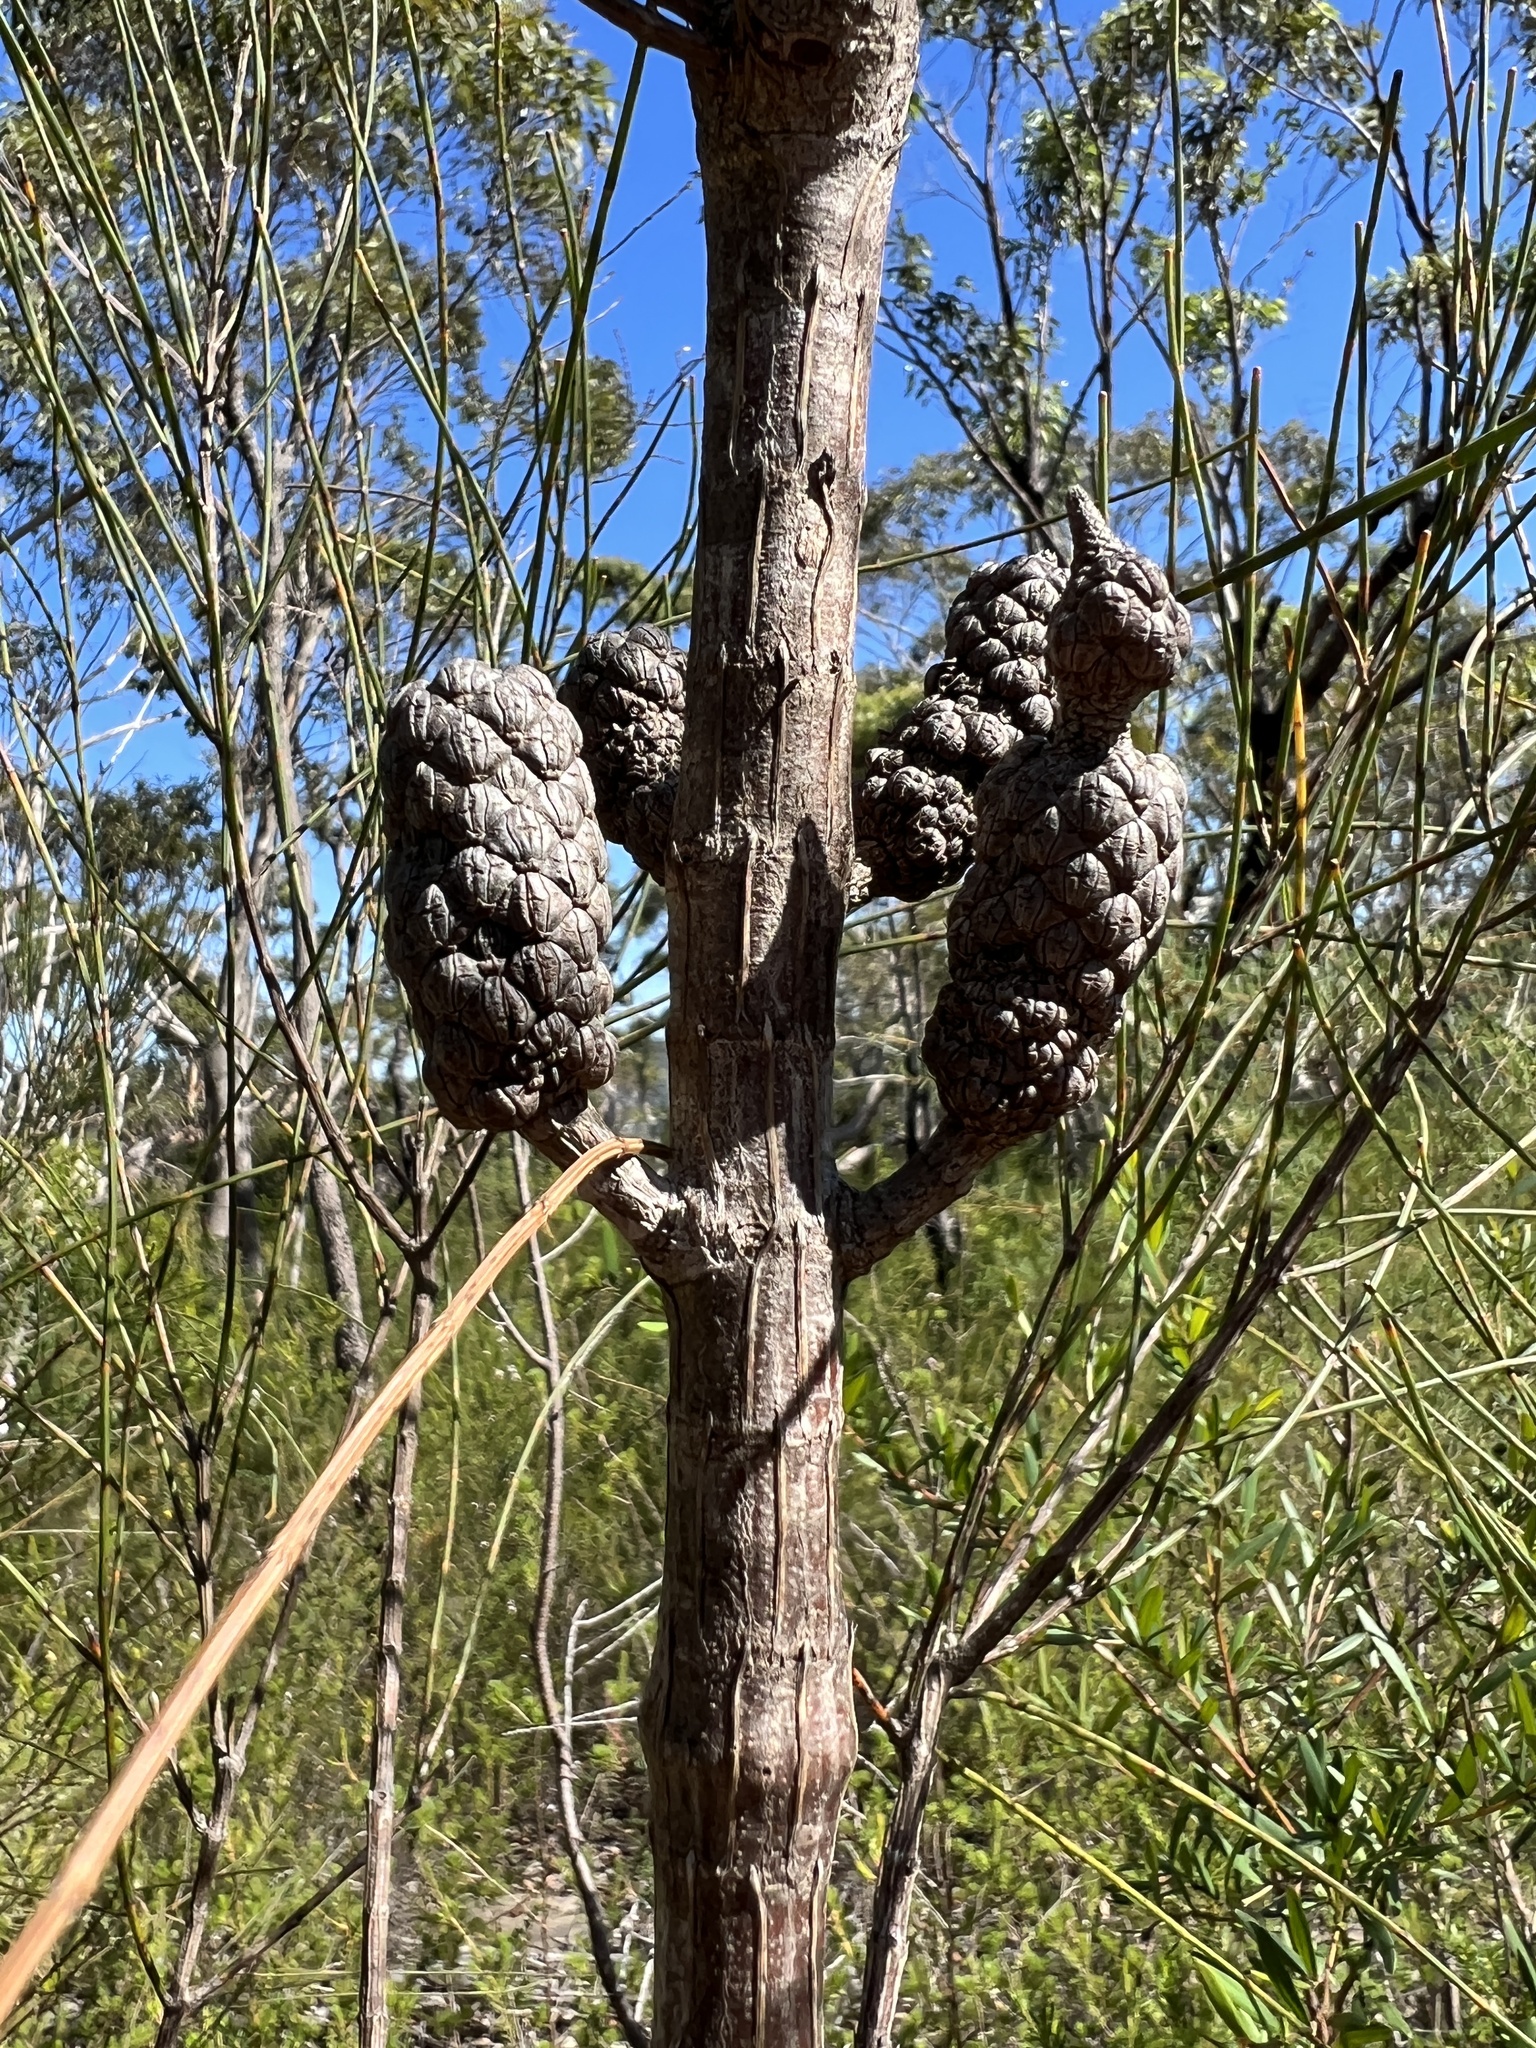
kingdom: Plantae
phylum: Tracheophyta
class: Magnoliopsida
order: Fagales
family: Casuarinaceae
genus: Allocasuarina
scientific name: Allocasuarina distyla
